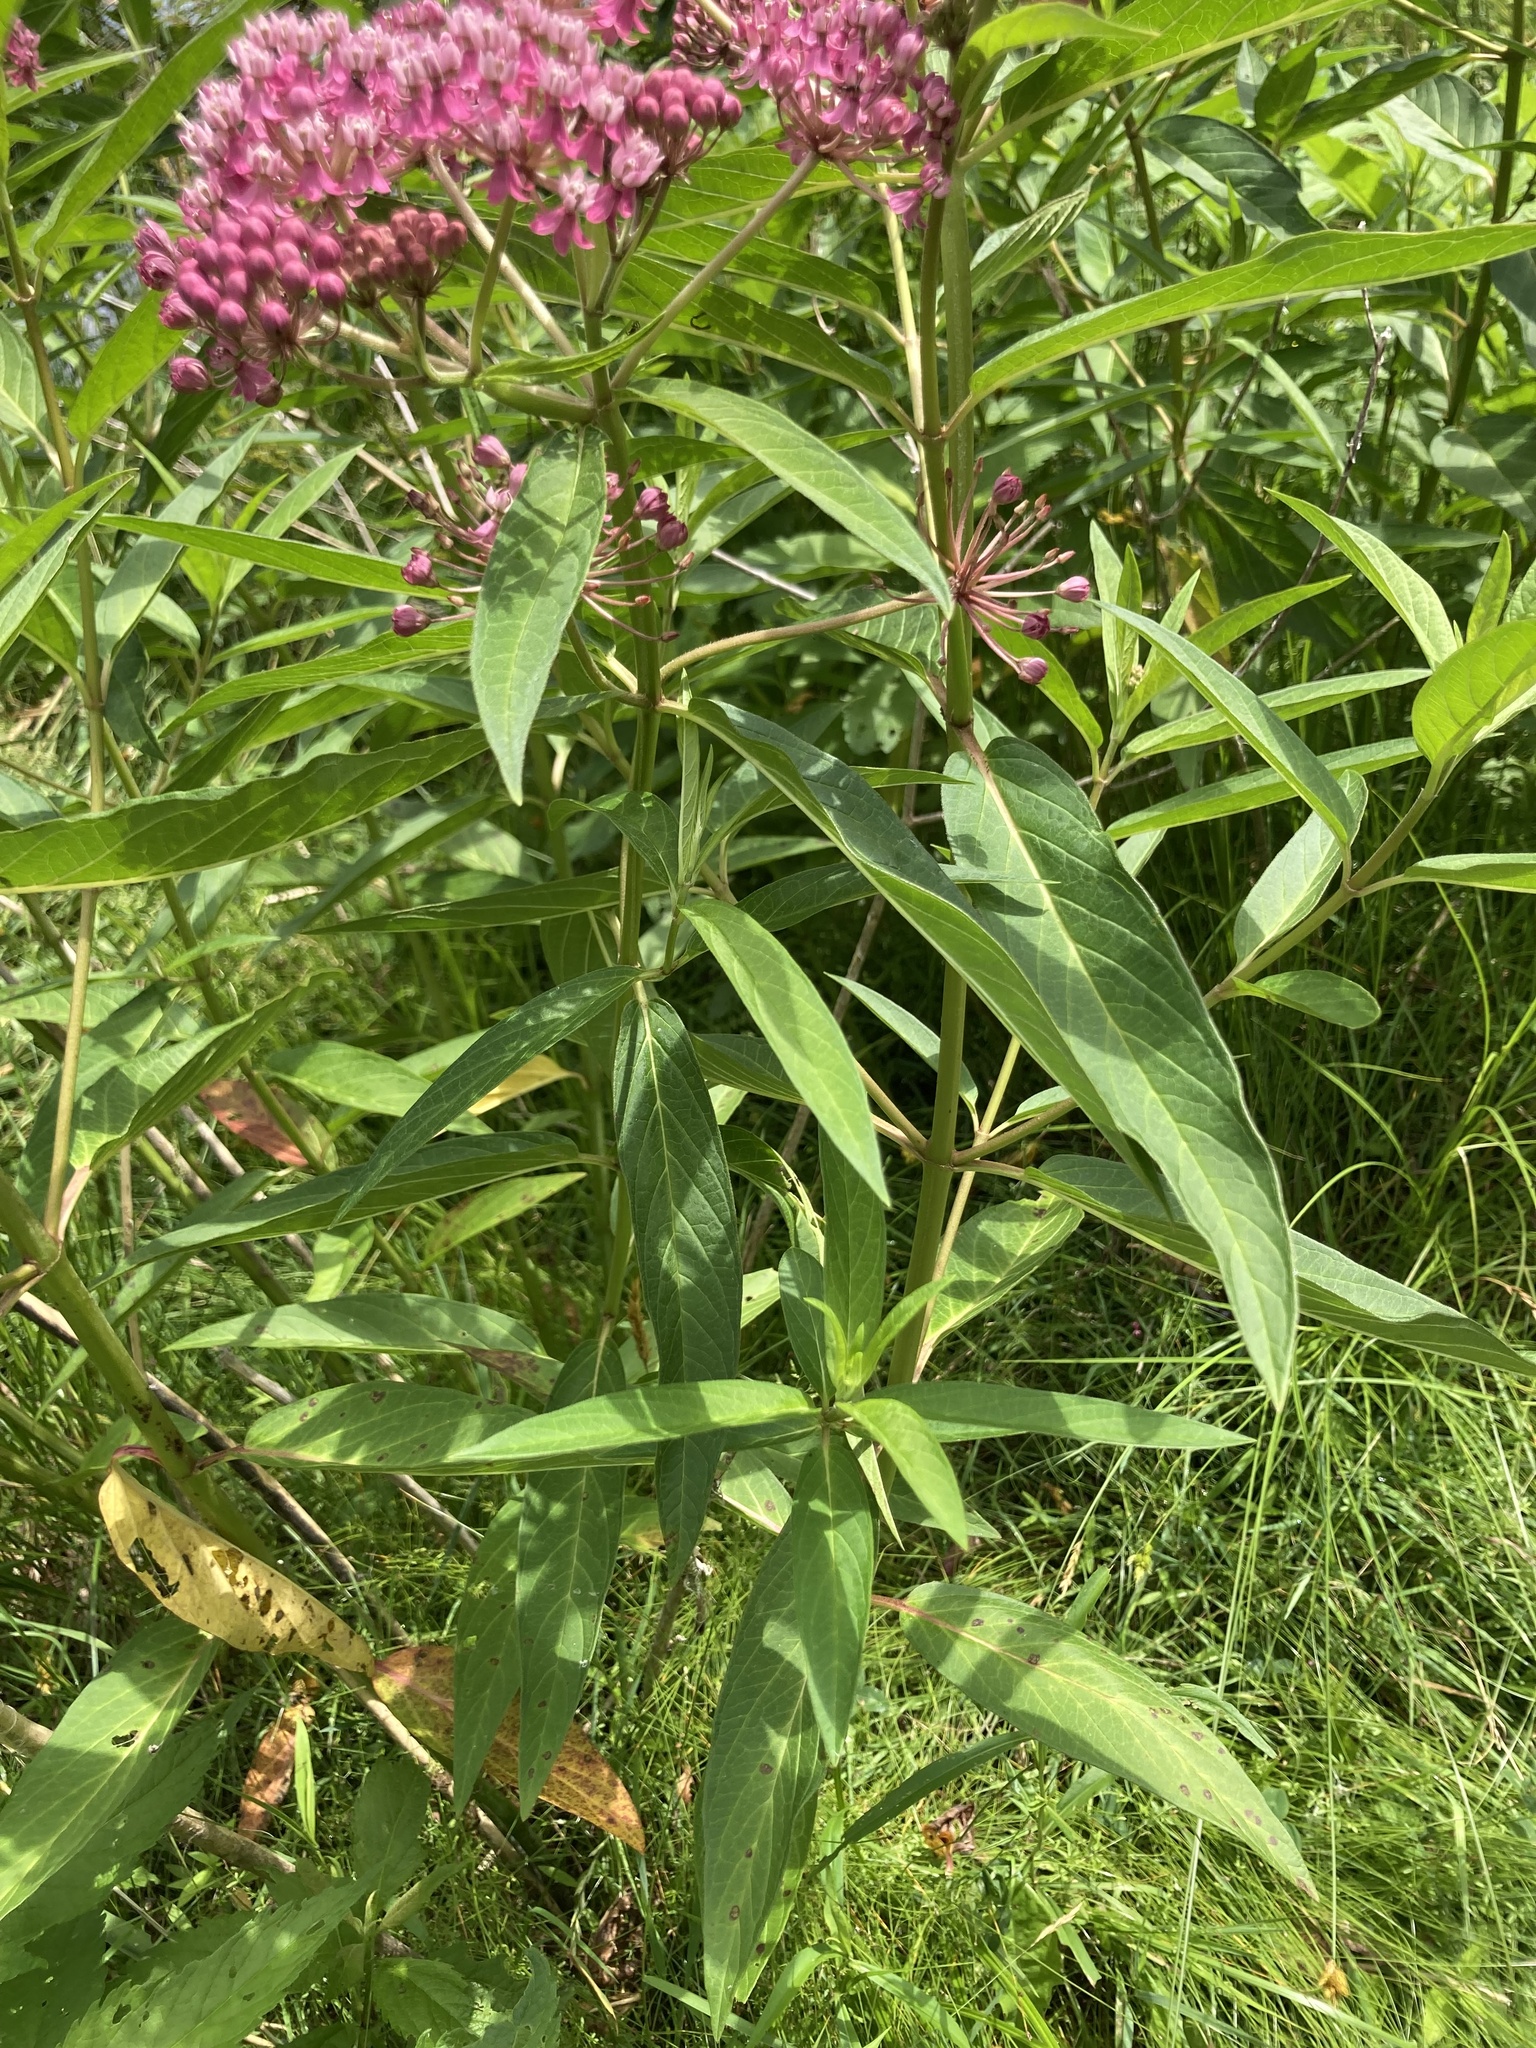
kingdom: Plantae
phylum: Tracheophyta
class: Magnoliopsida
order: Gentianales
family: Apocynaceae
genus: Asclepias
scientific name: Asclepias incarnata
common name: Swamp milkweed
